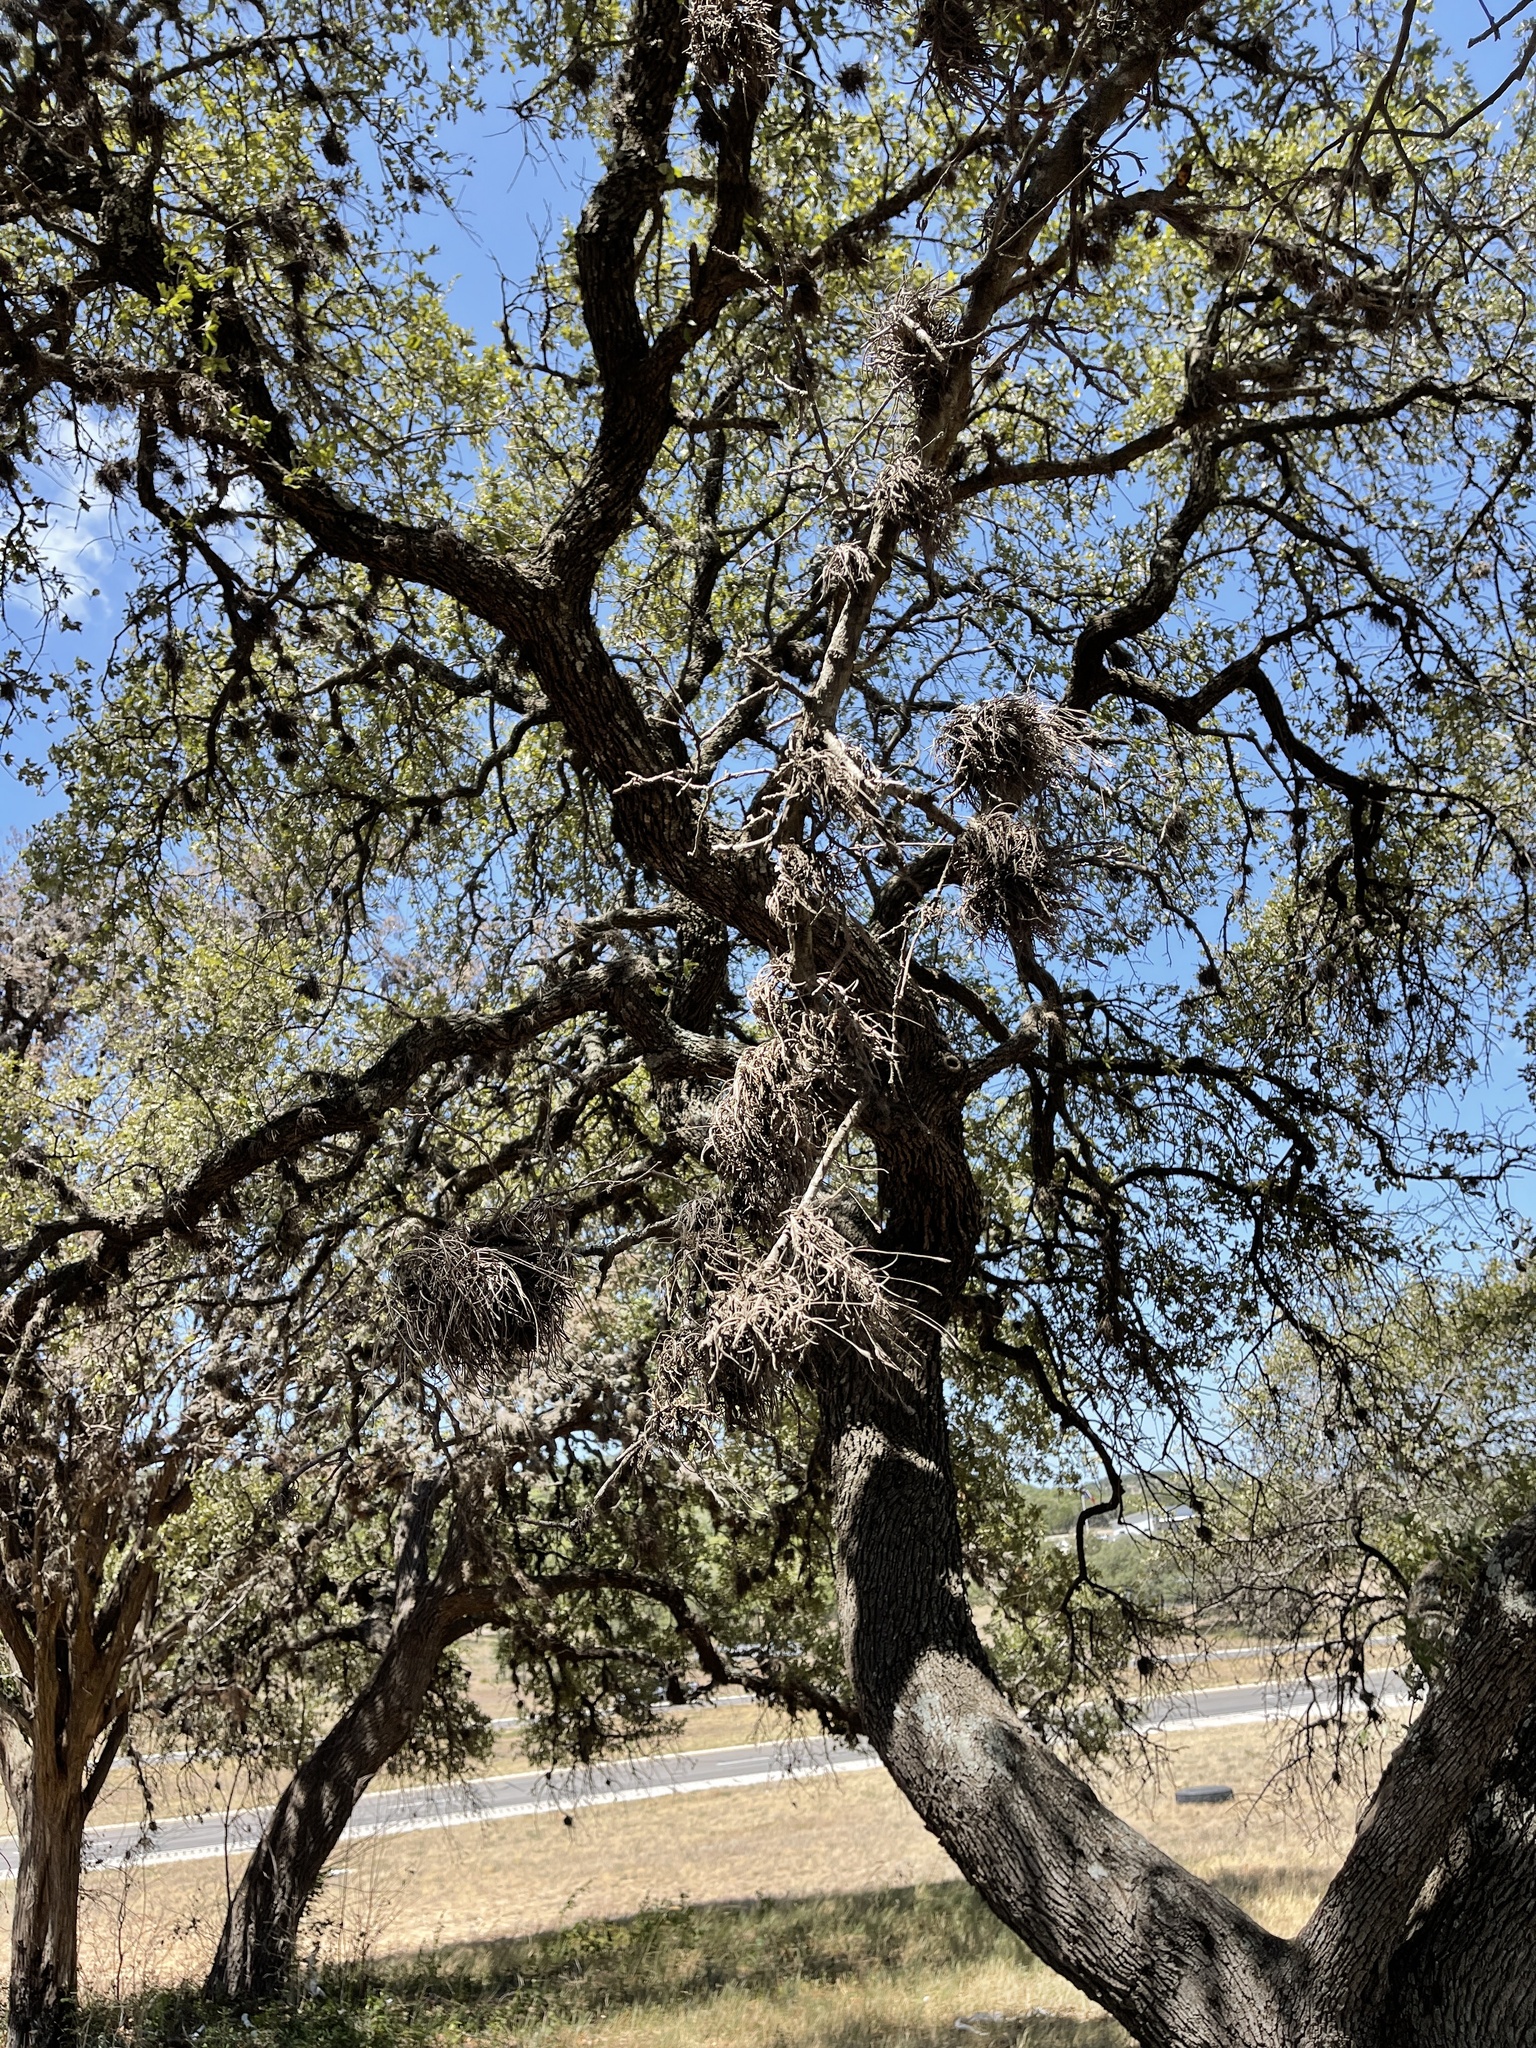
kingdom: Plantae
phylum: Tracheophyta
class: Liliopsida
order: Poales
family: Bromeliaceae
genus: Tillandsia
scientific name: Tillandsia recurvata
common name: Small ballmoss
